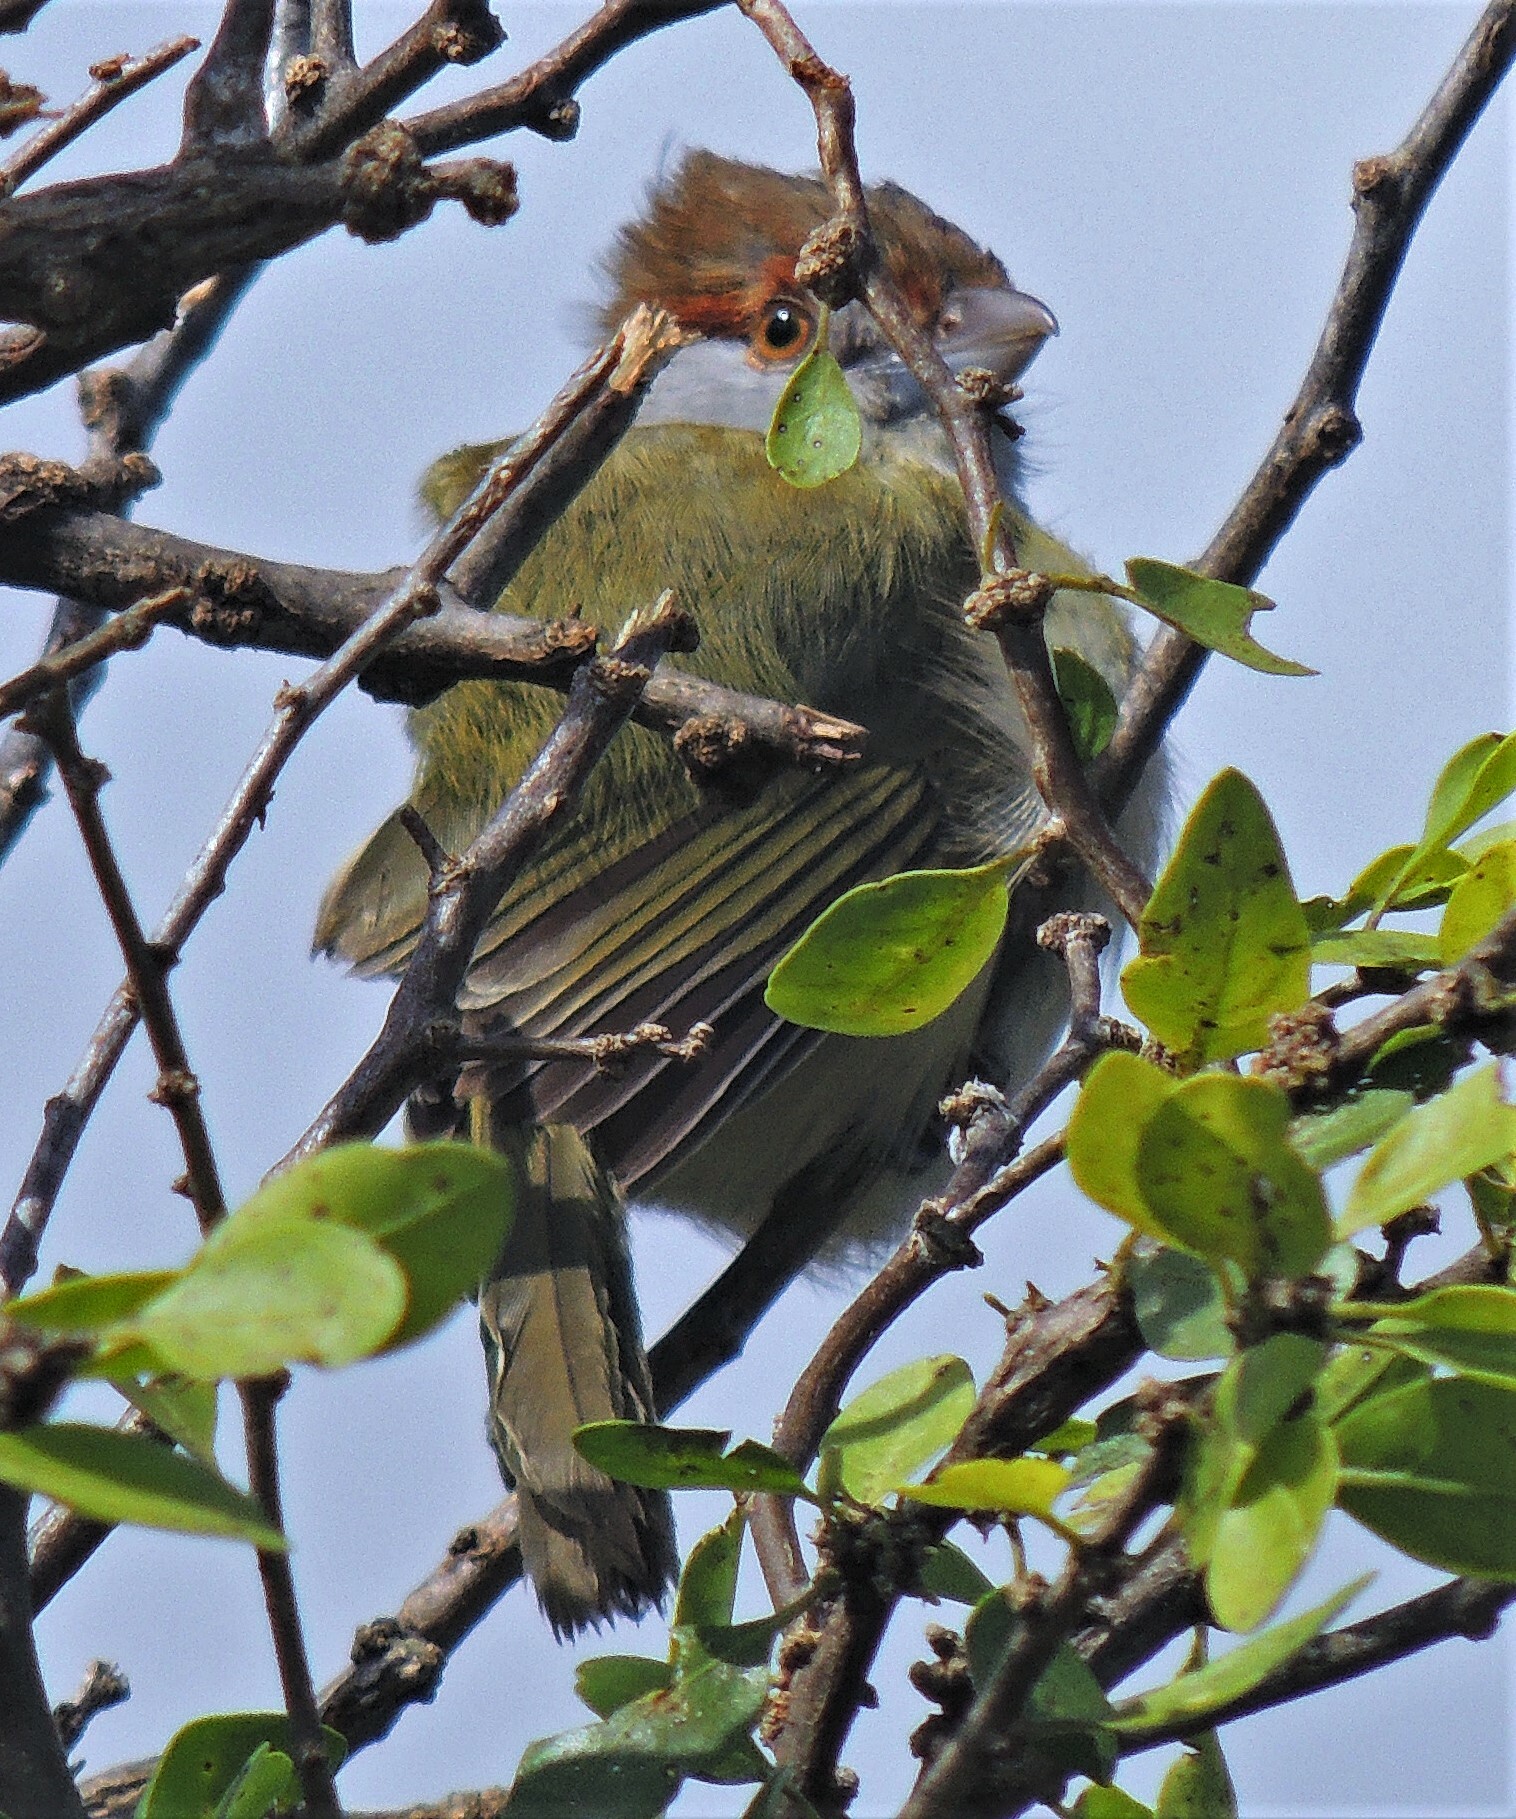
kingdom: Animalia
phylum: Chordata
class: Aves
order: Passeriformes
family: Vireonidae
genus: Cyclarhis
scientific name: Cyclarhis gujanensis
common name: Rufous-browed peppershrike
